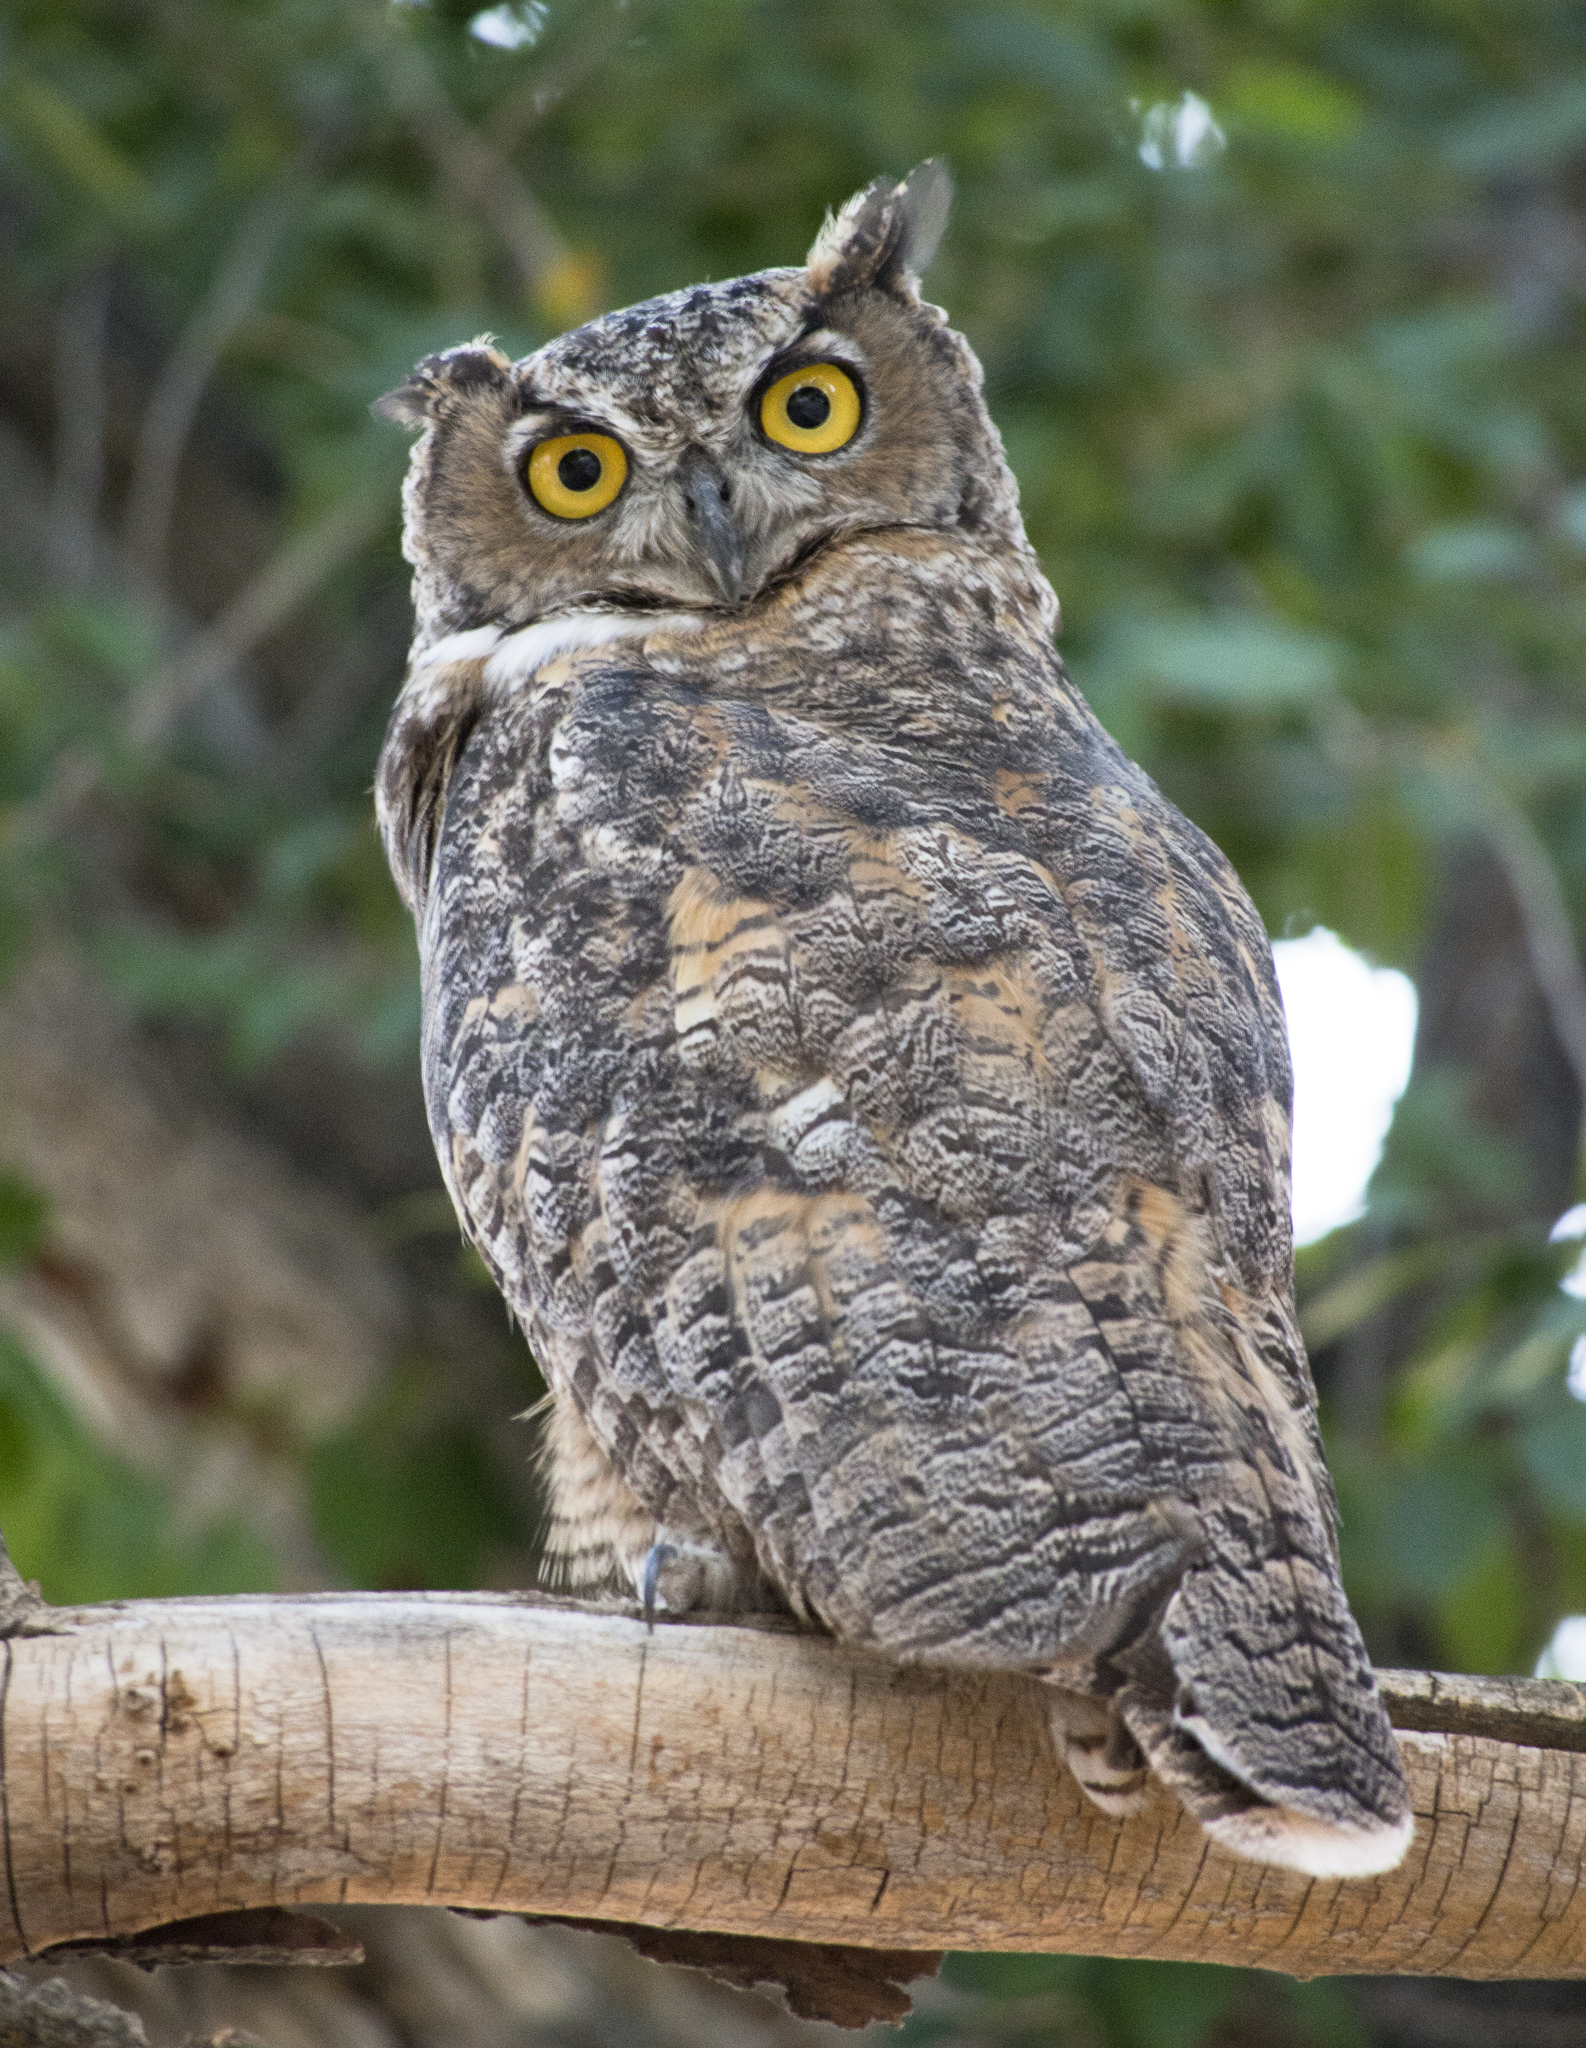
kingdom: Animalia
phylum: Chordata
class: Aves
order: Strigiformes
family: Strigidae
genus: Bubo
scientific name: Bubo virginianus
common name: Great horned owl
